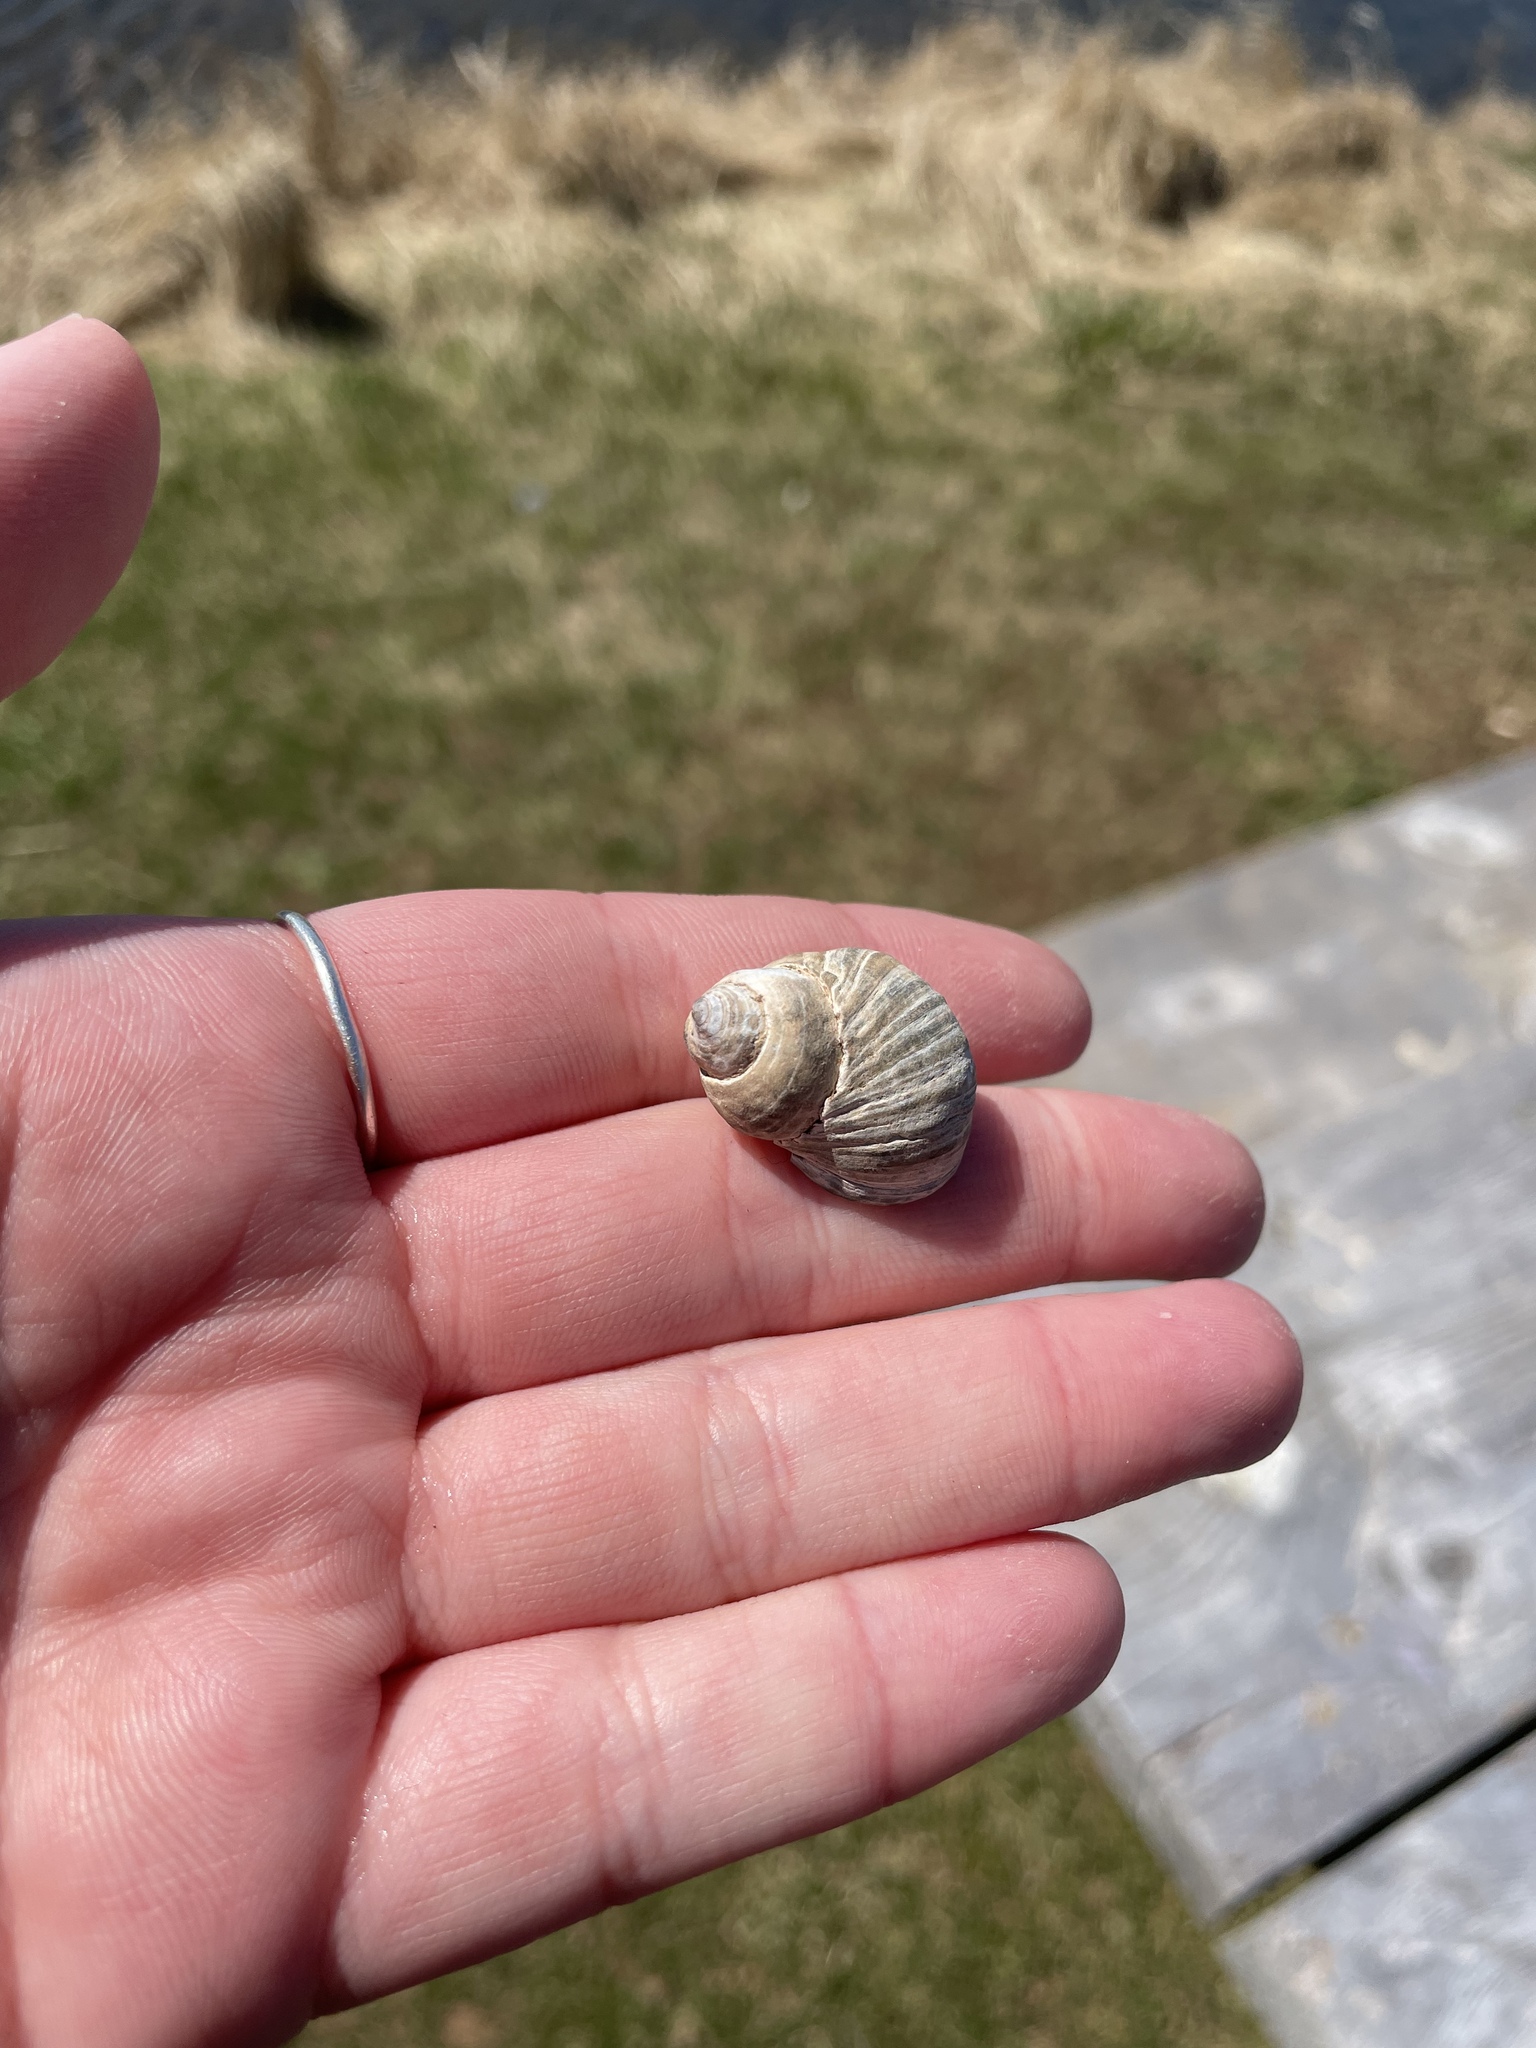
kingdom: Animalia
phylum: Mollusca
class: Gastropoda
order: Littorinimorpha
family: Littorinidae
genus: Littorina
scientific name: Littorina littorea
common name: Common periwinkle
